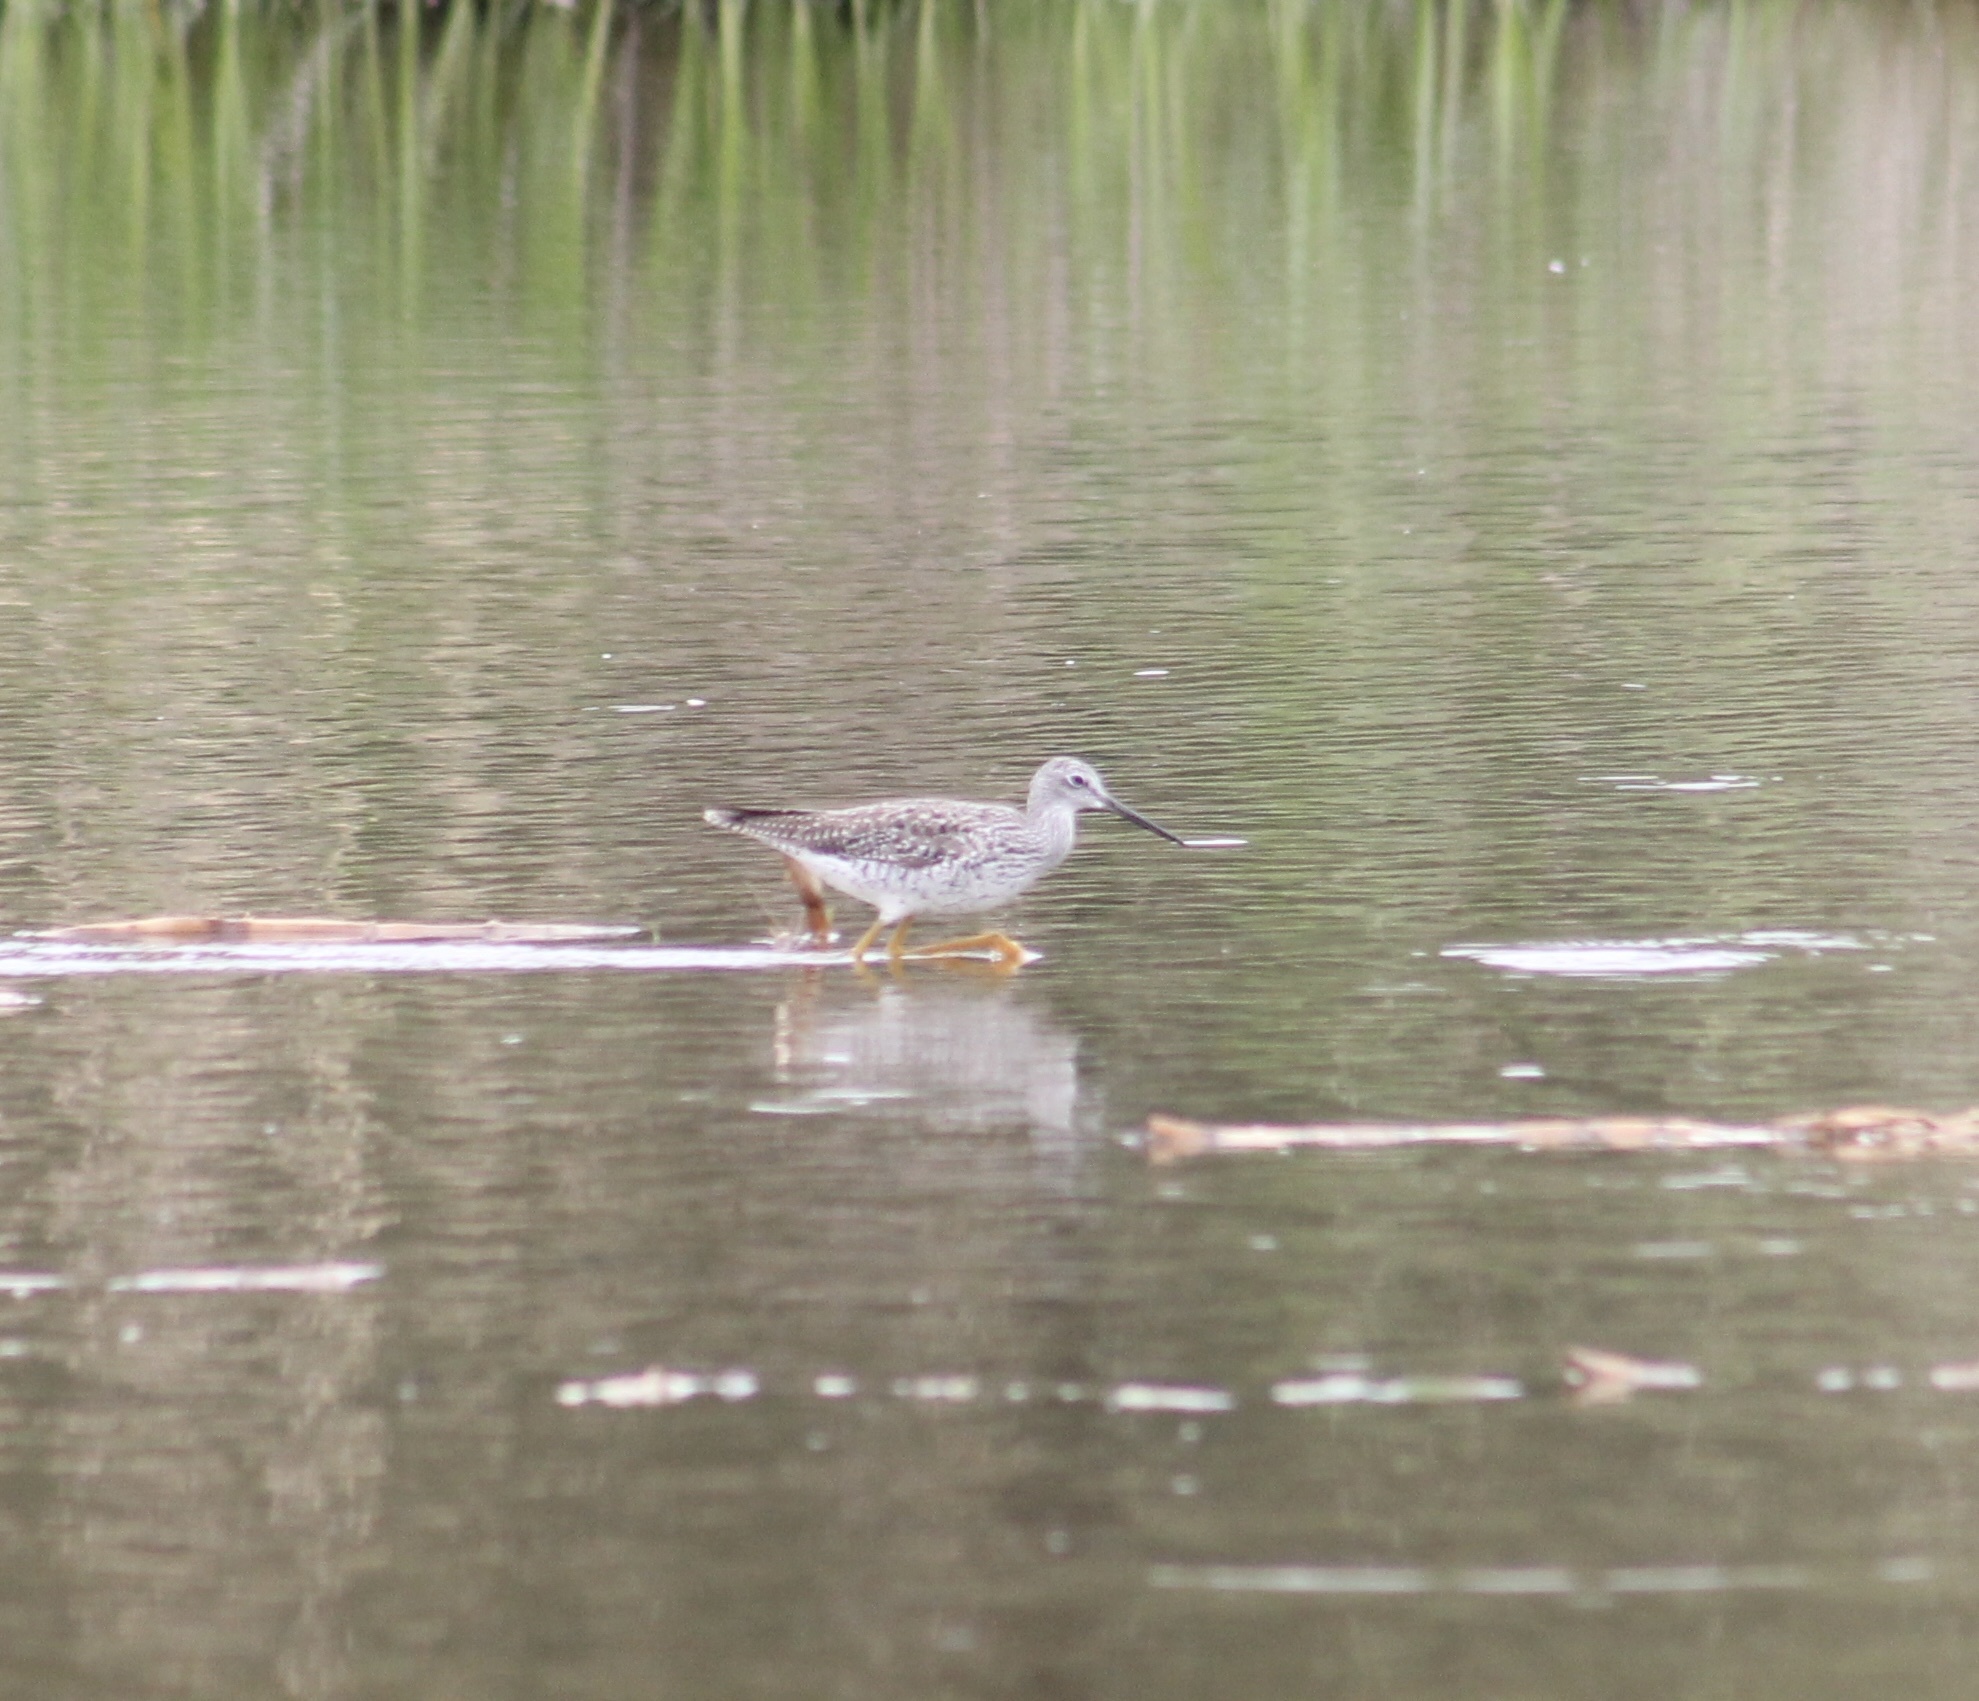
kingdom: Animalia
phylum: Chordata
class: Aves
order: Charadriiformes
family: Scolopacidae
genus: Tringa
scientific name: Tringa melanoleuca
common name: Greater yellowlegs
